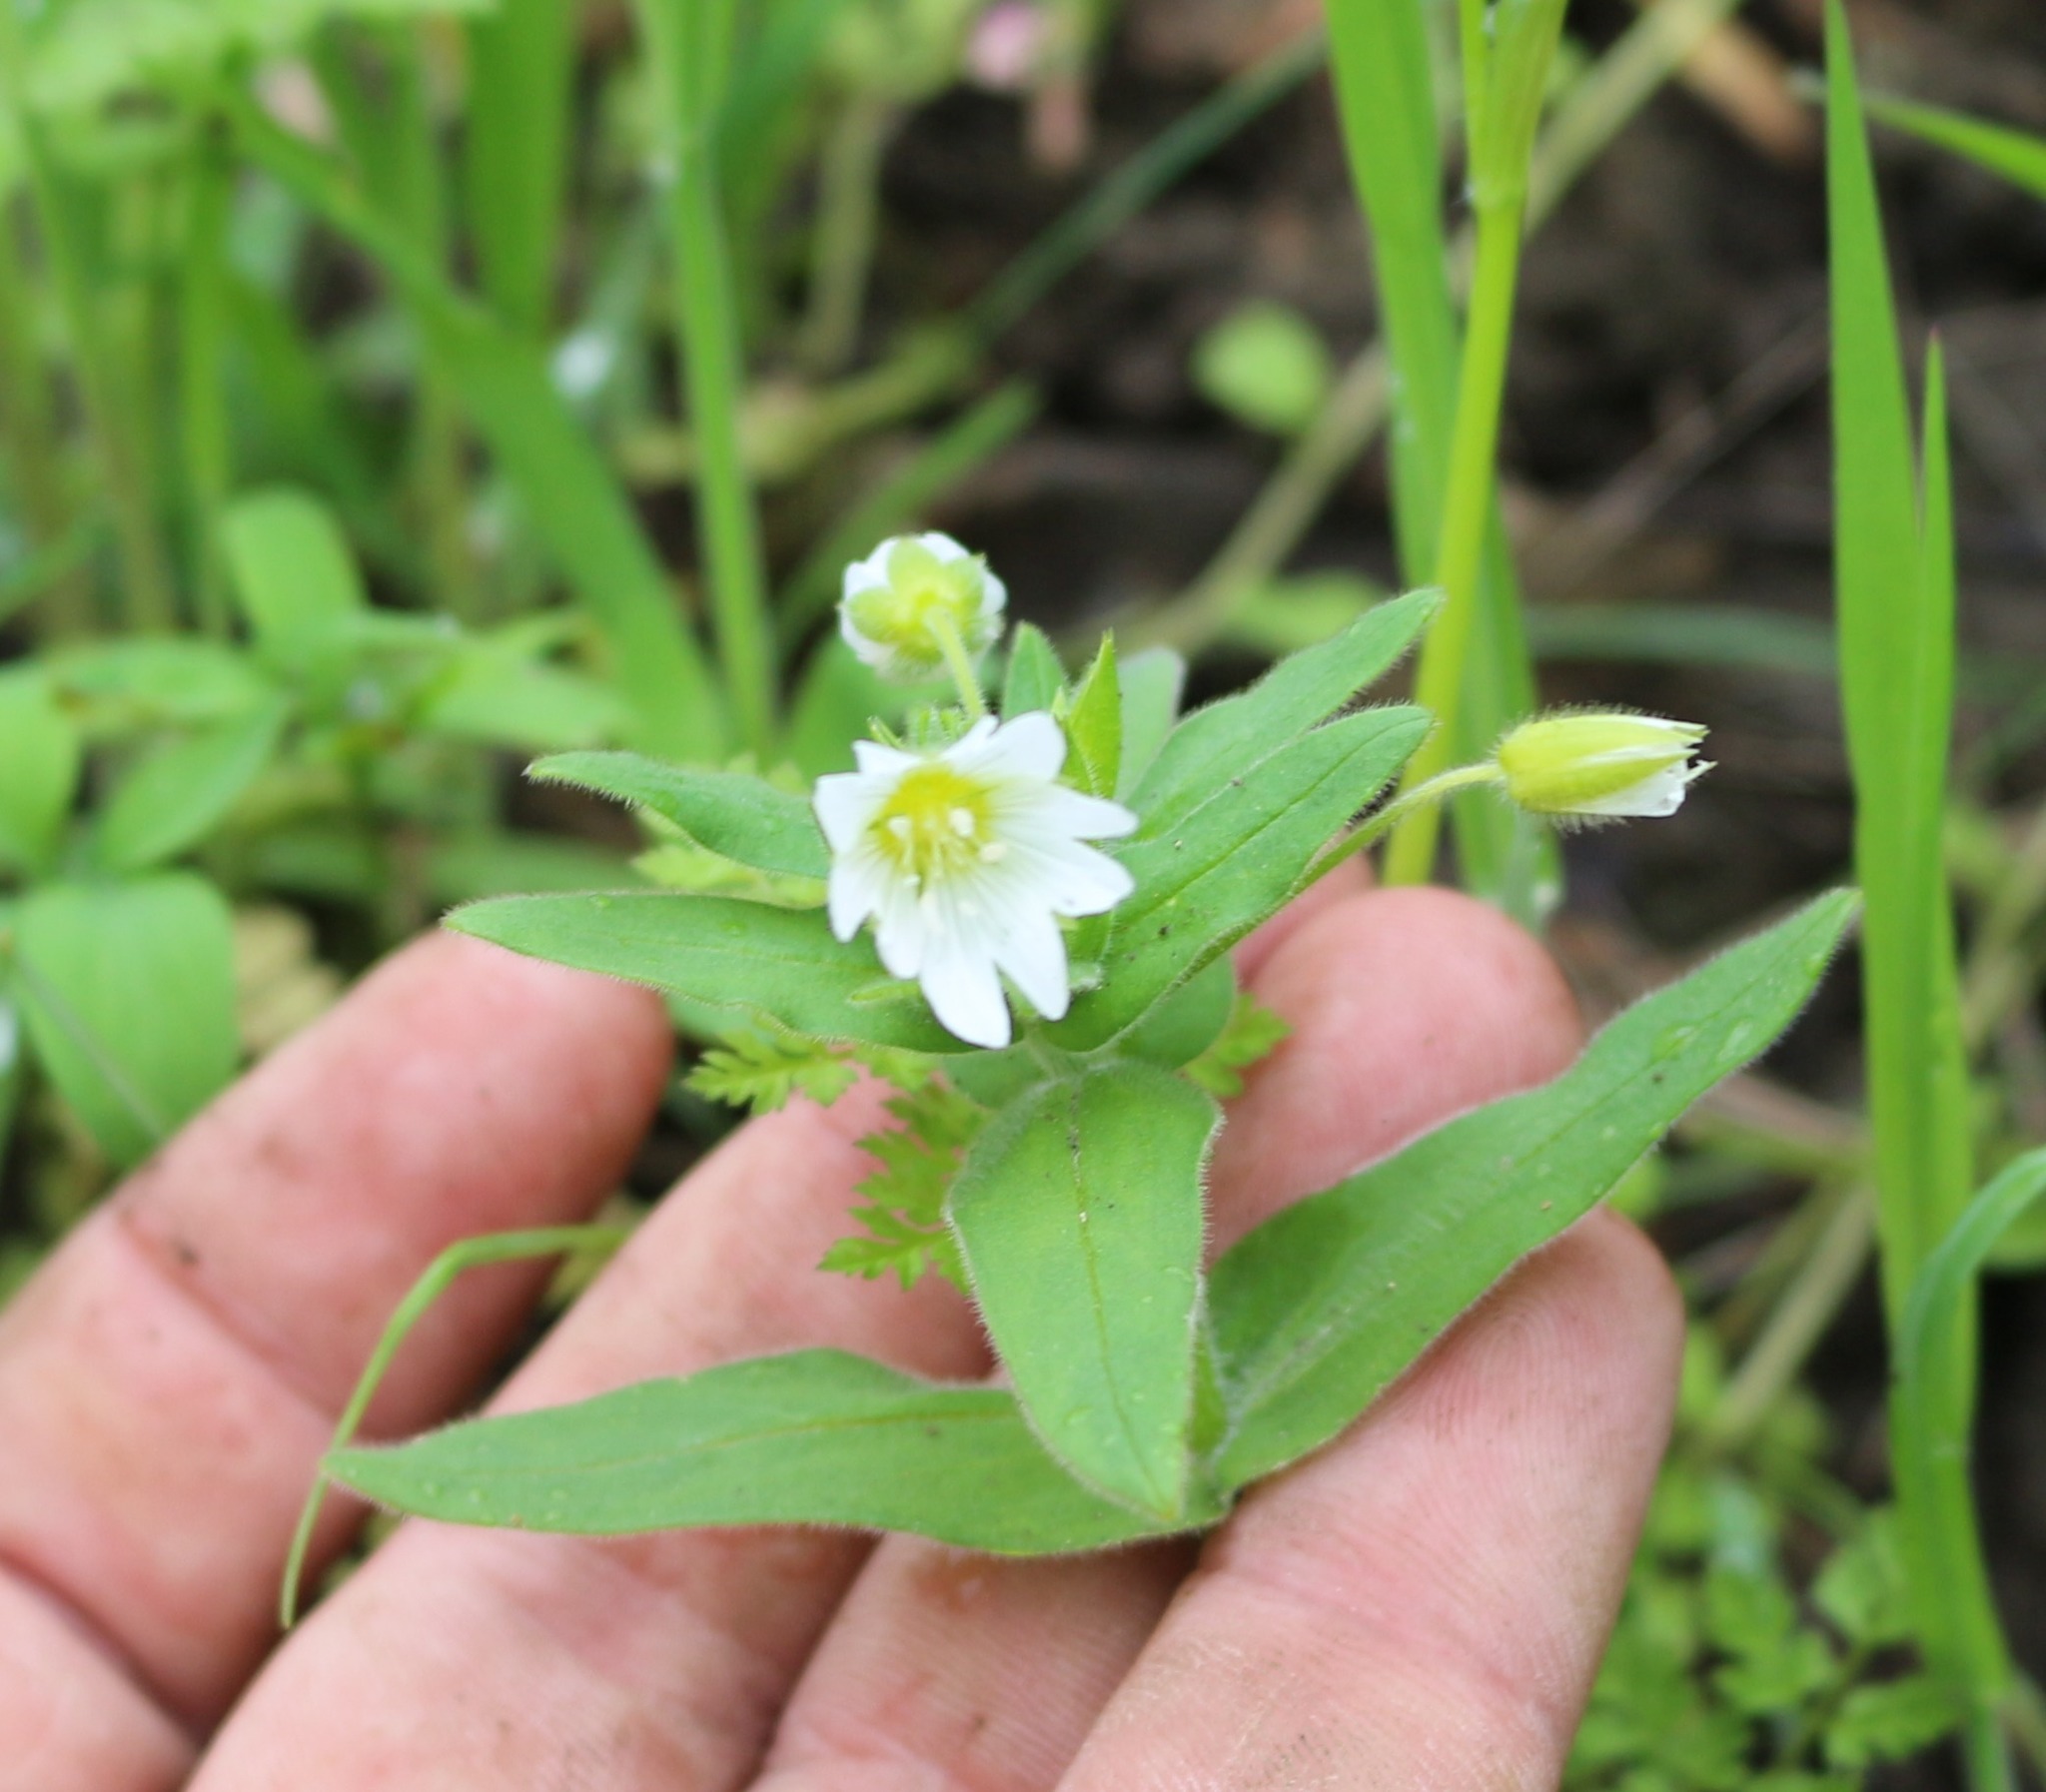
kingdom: Plantae
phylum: Tracheophyta
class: Magnoliopsida
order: Caryophyllales
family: Caryophyllaceae
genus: Cerastium
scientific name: Cerastium nemorale
